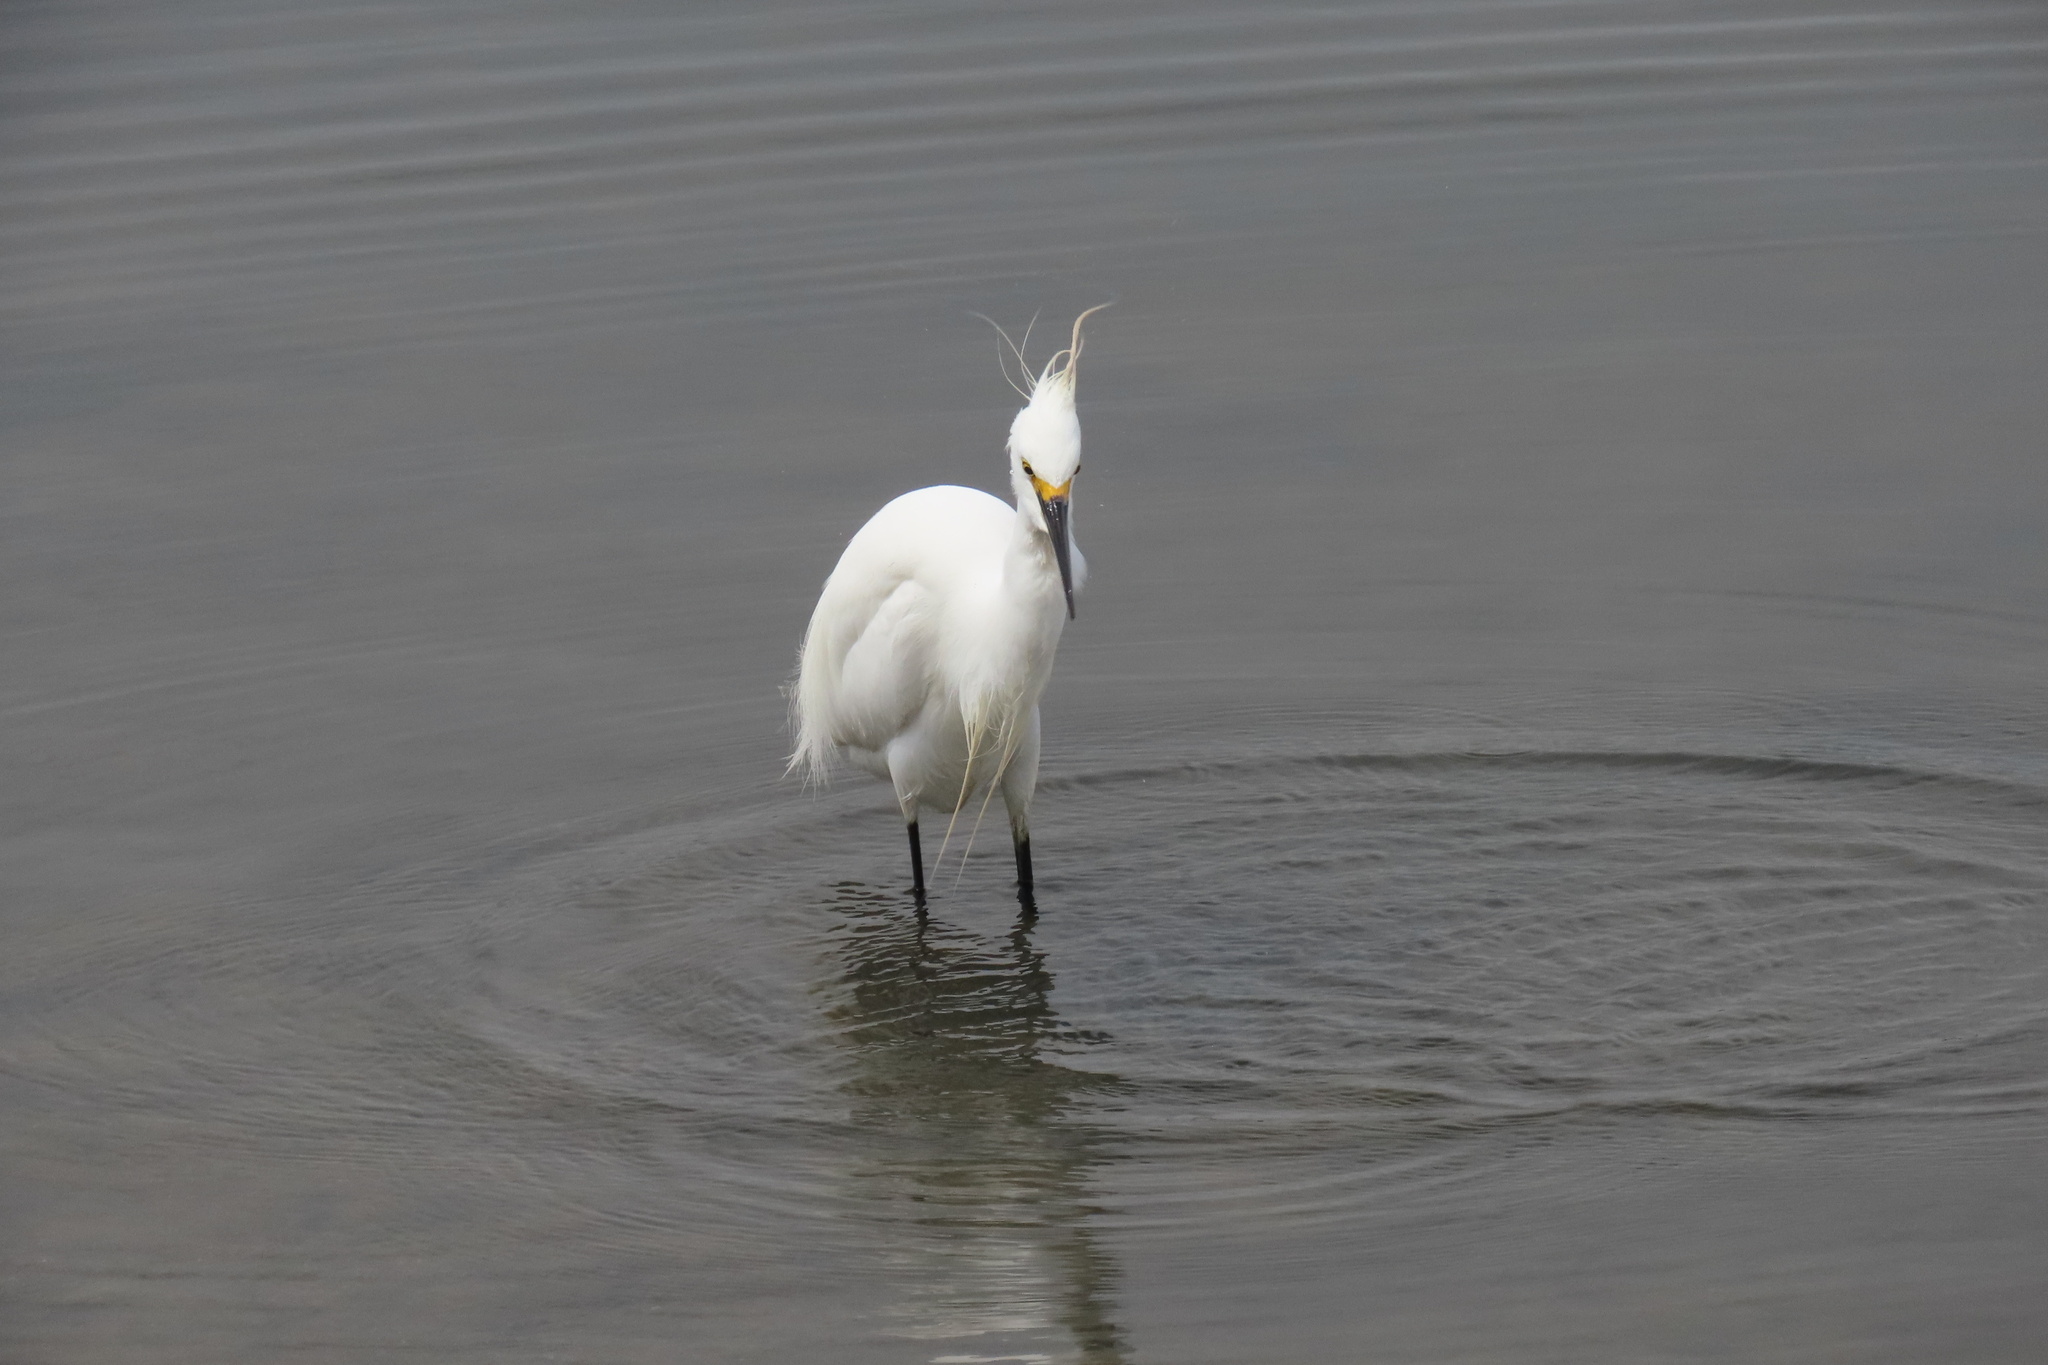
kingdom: Animalia
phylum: Chordata
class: Aves
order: Pelecaniformes
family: Ardeidae
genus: Egretta
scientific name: Egretta thula
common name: Snowy egret
